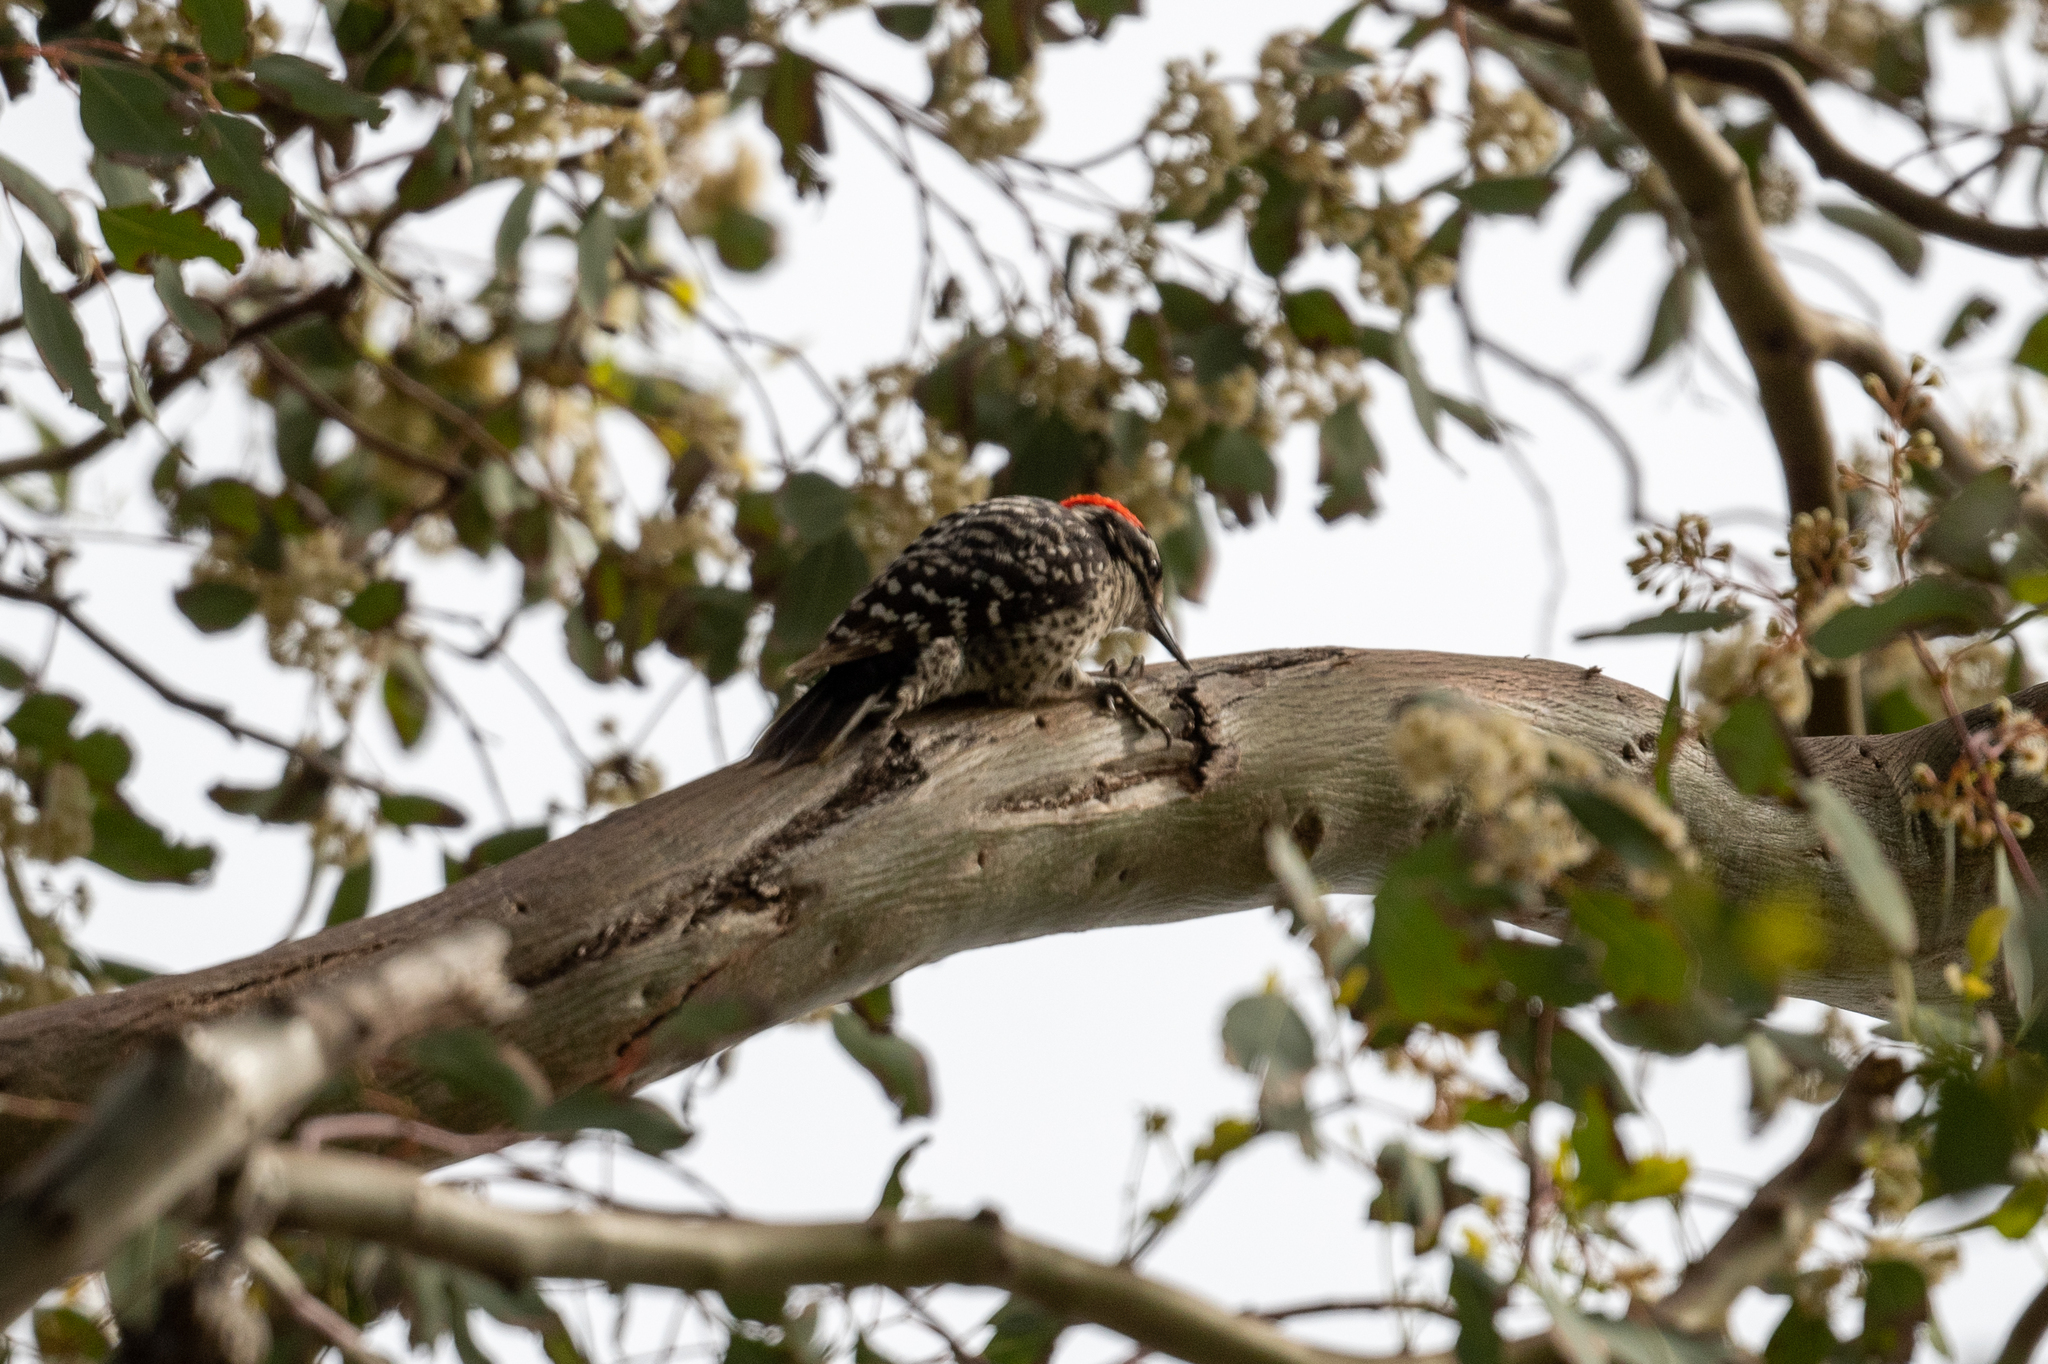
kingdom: Animalia
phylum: Chordata
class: Aves
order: Piciformes
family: Picidae
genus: Dryobates
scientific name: Dryobates nuttallii
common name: Nuttall's woodpecker
